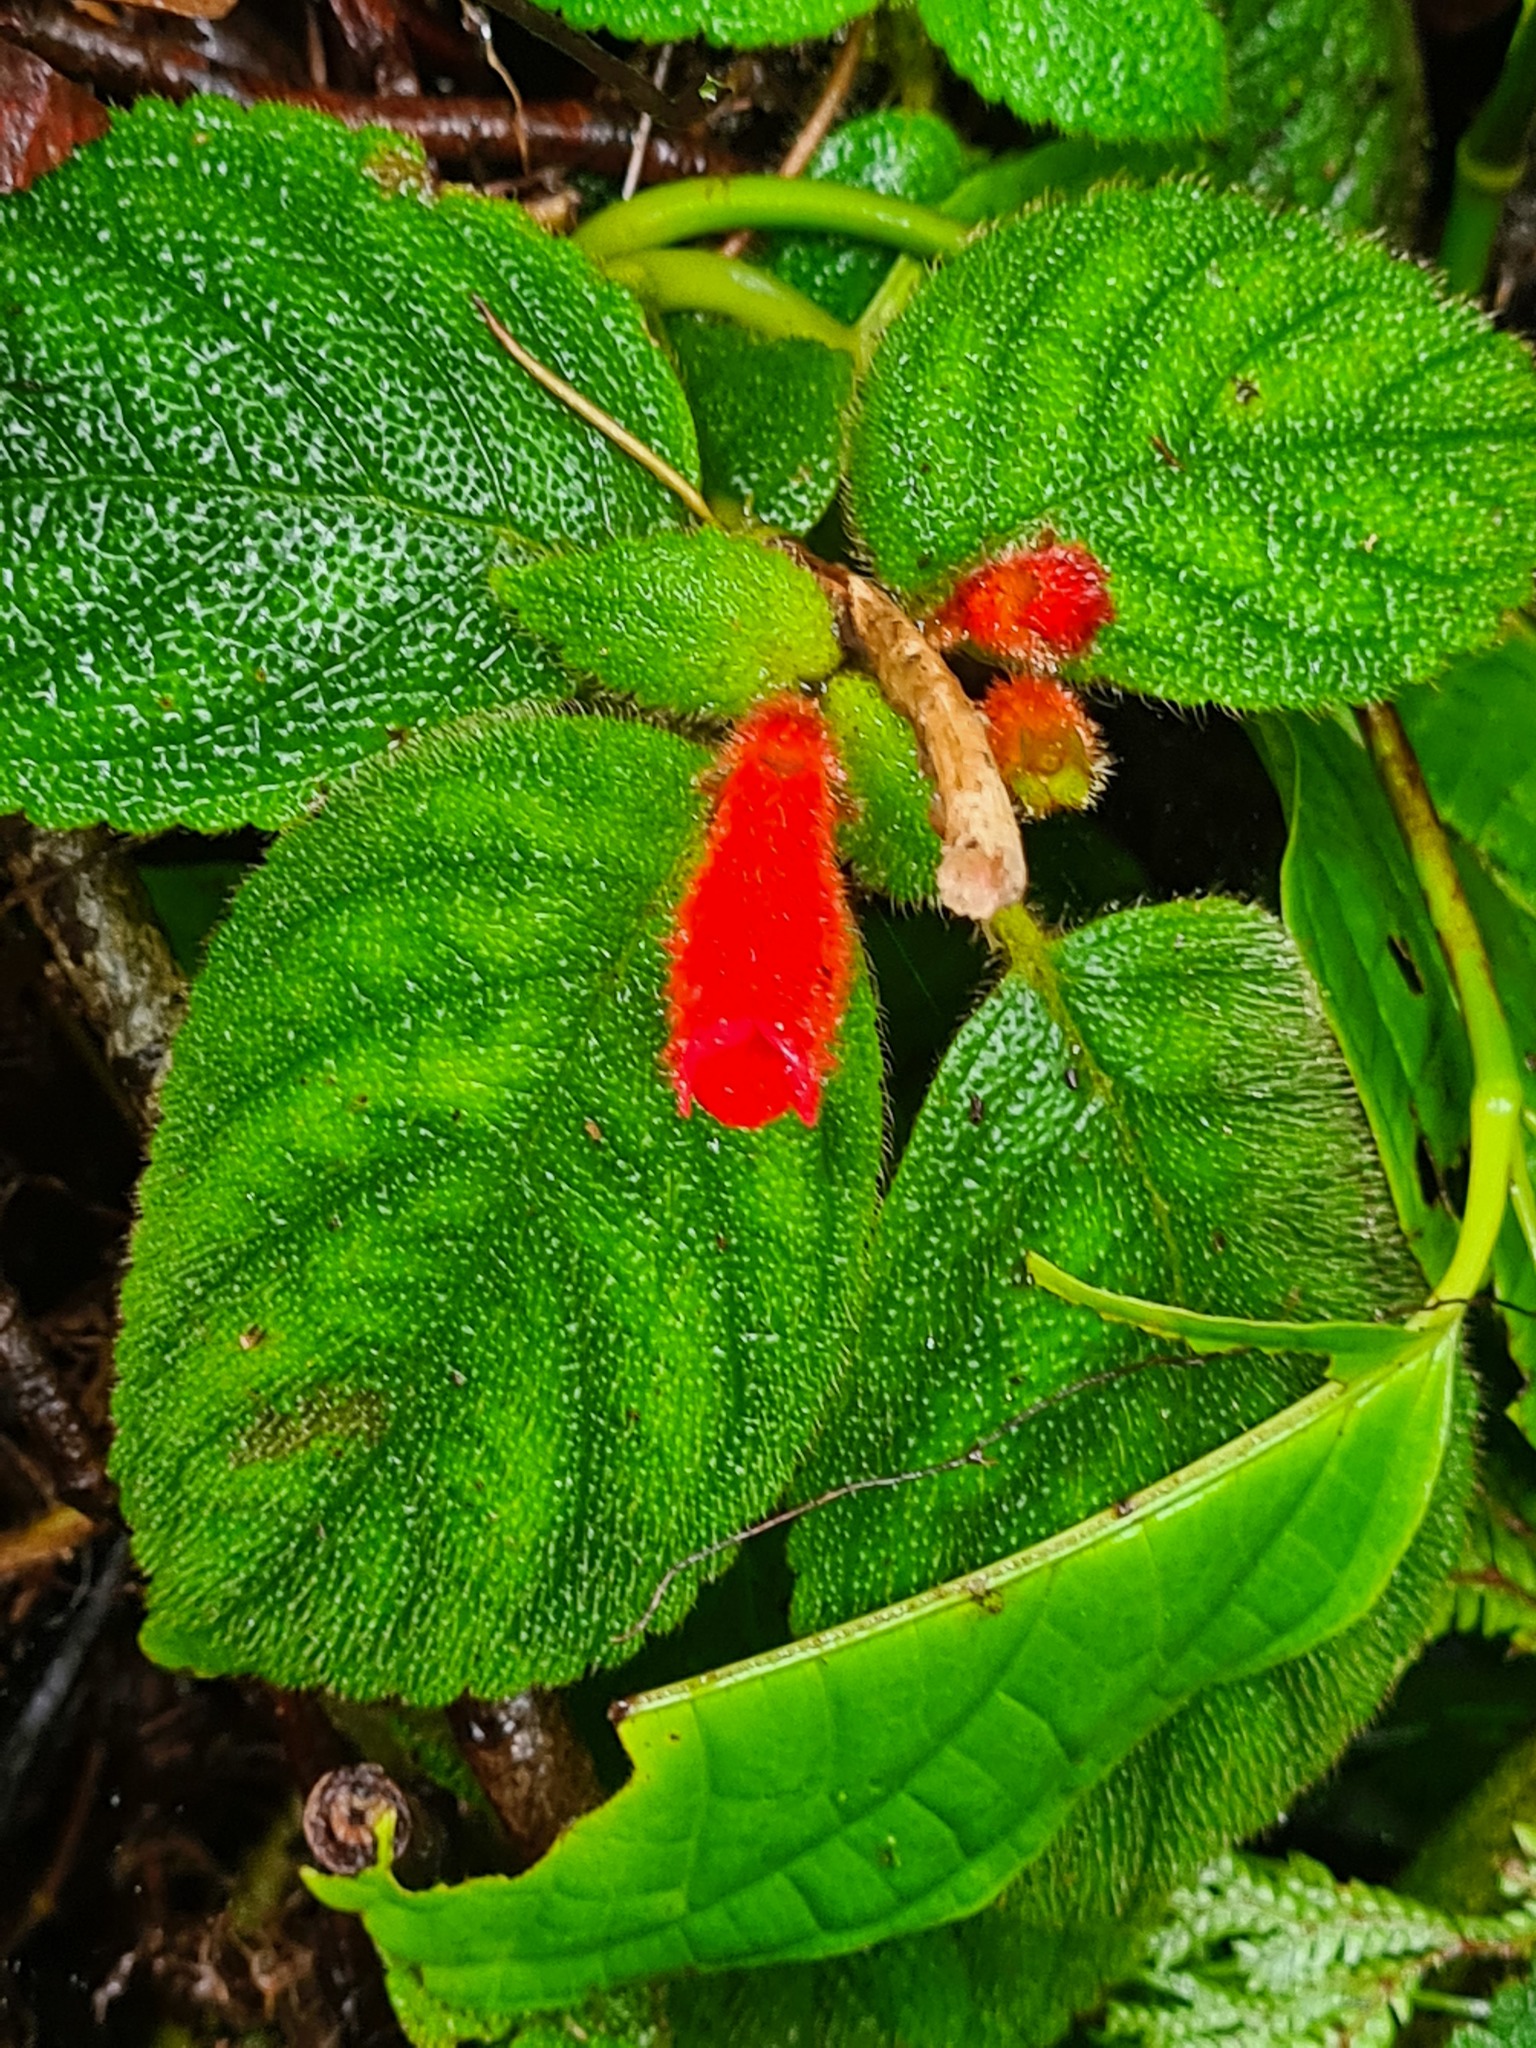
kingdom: Plantae
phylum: Tracheophyta
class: Magnoliopsida
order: Lamiales
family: Gesneriaceae
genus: Kohleria
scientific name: Kohleria villosa
